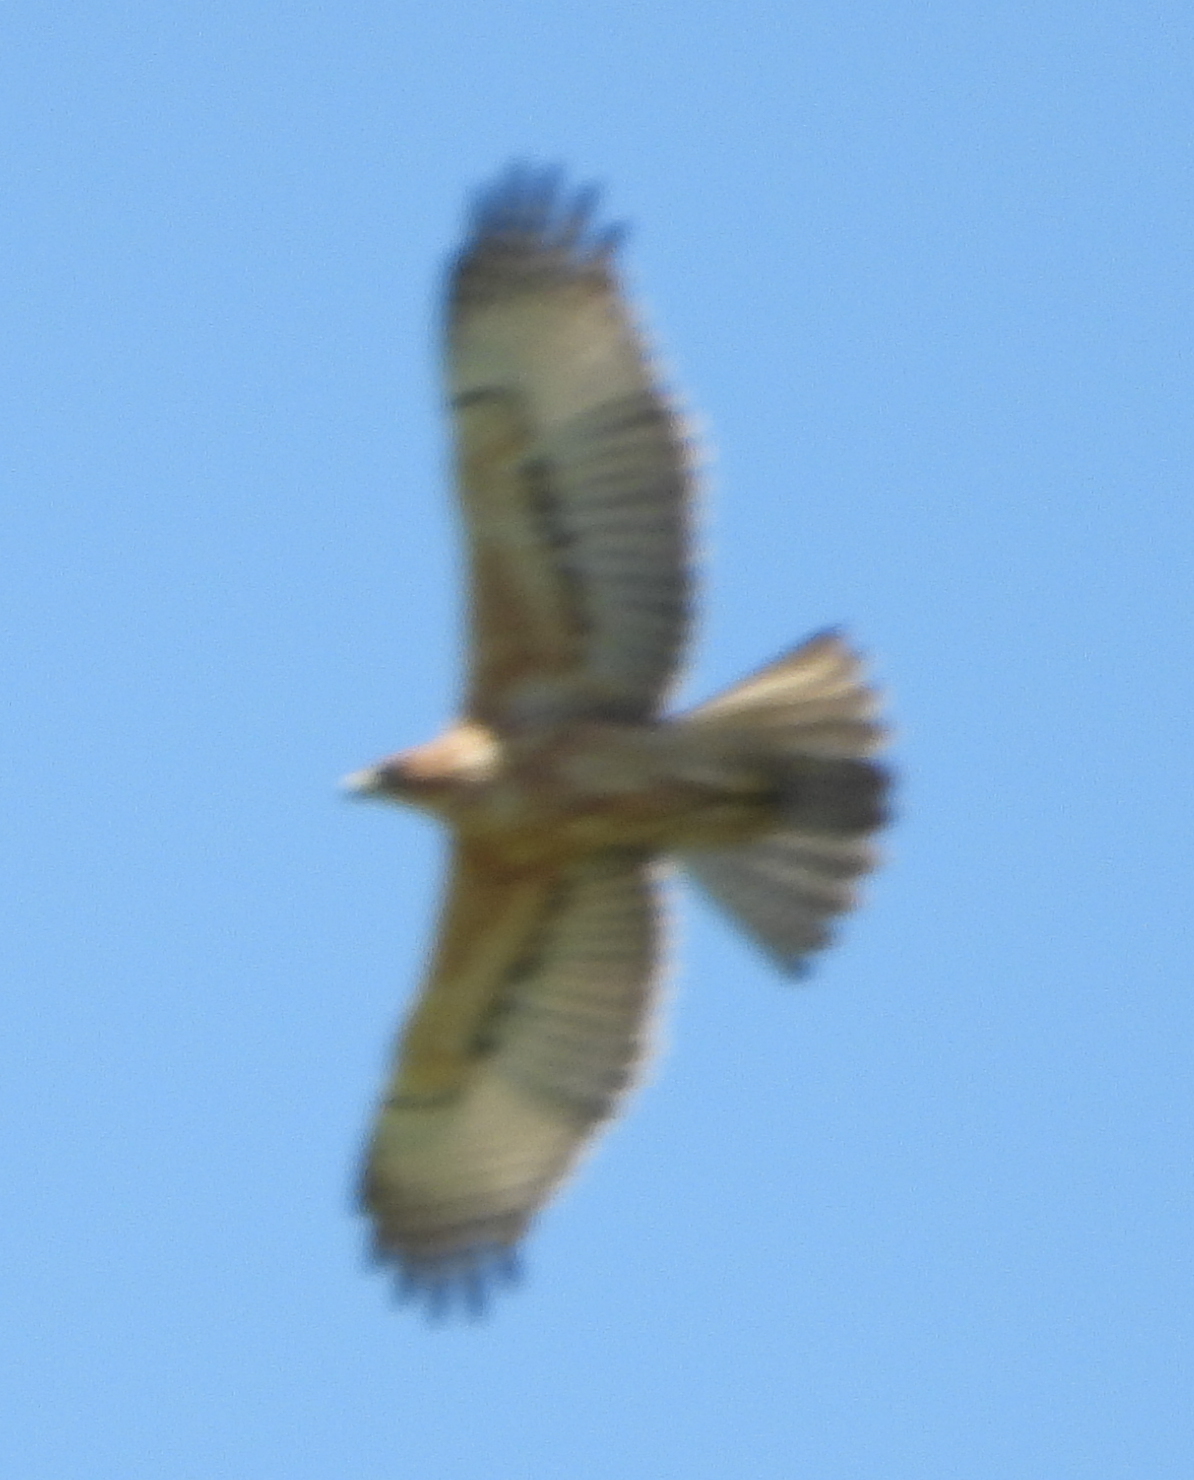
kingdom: Animalia
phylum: Chordata
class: Aves
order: Accipitriformes
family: Accipitridae
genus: Aquila
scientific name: Aquila spilogaster
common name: African hawk-eagle
